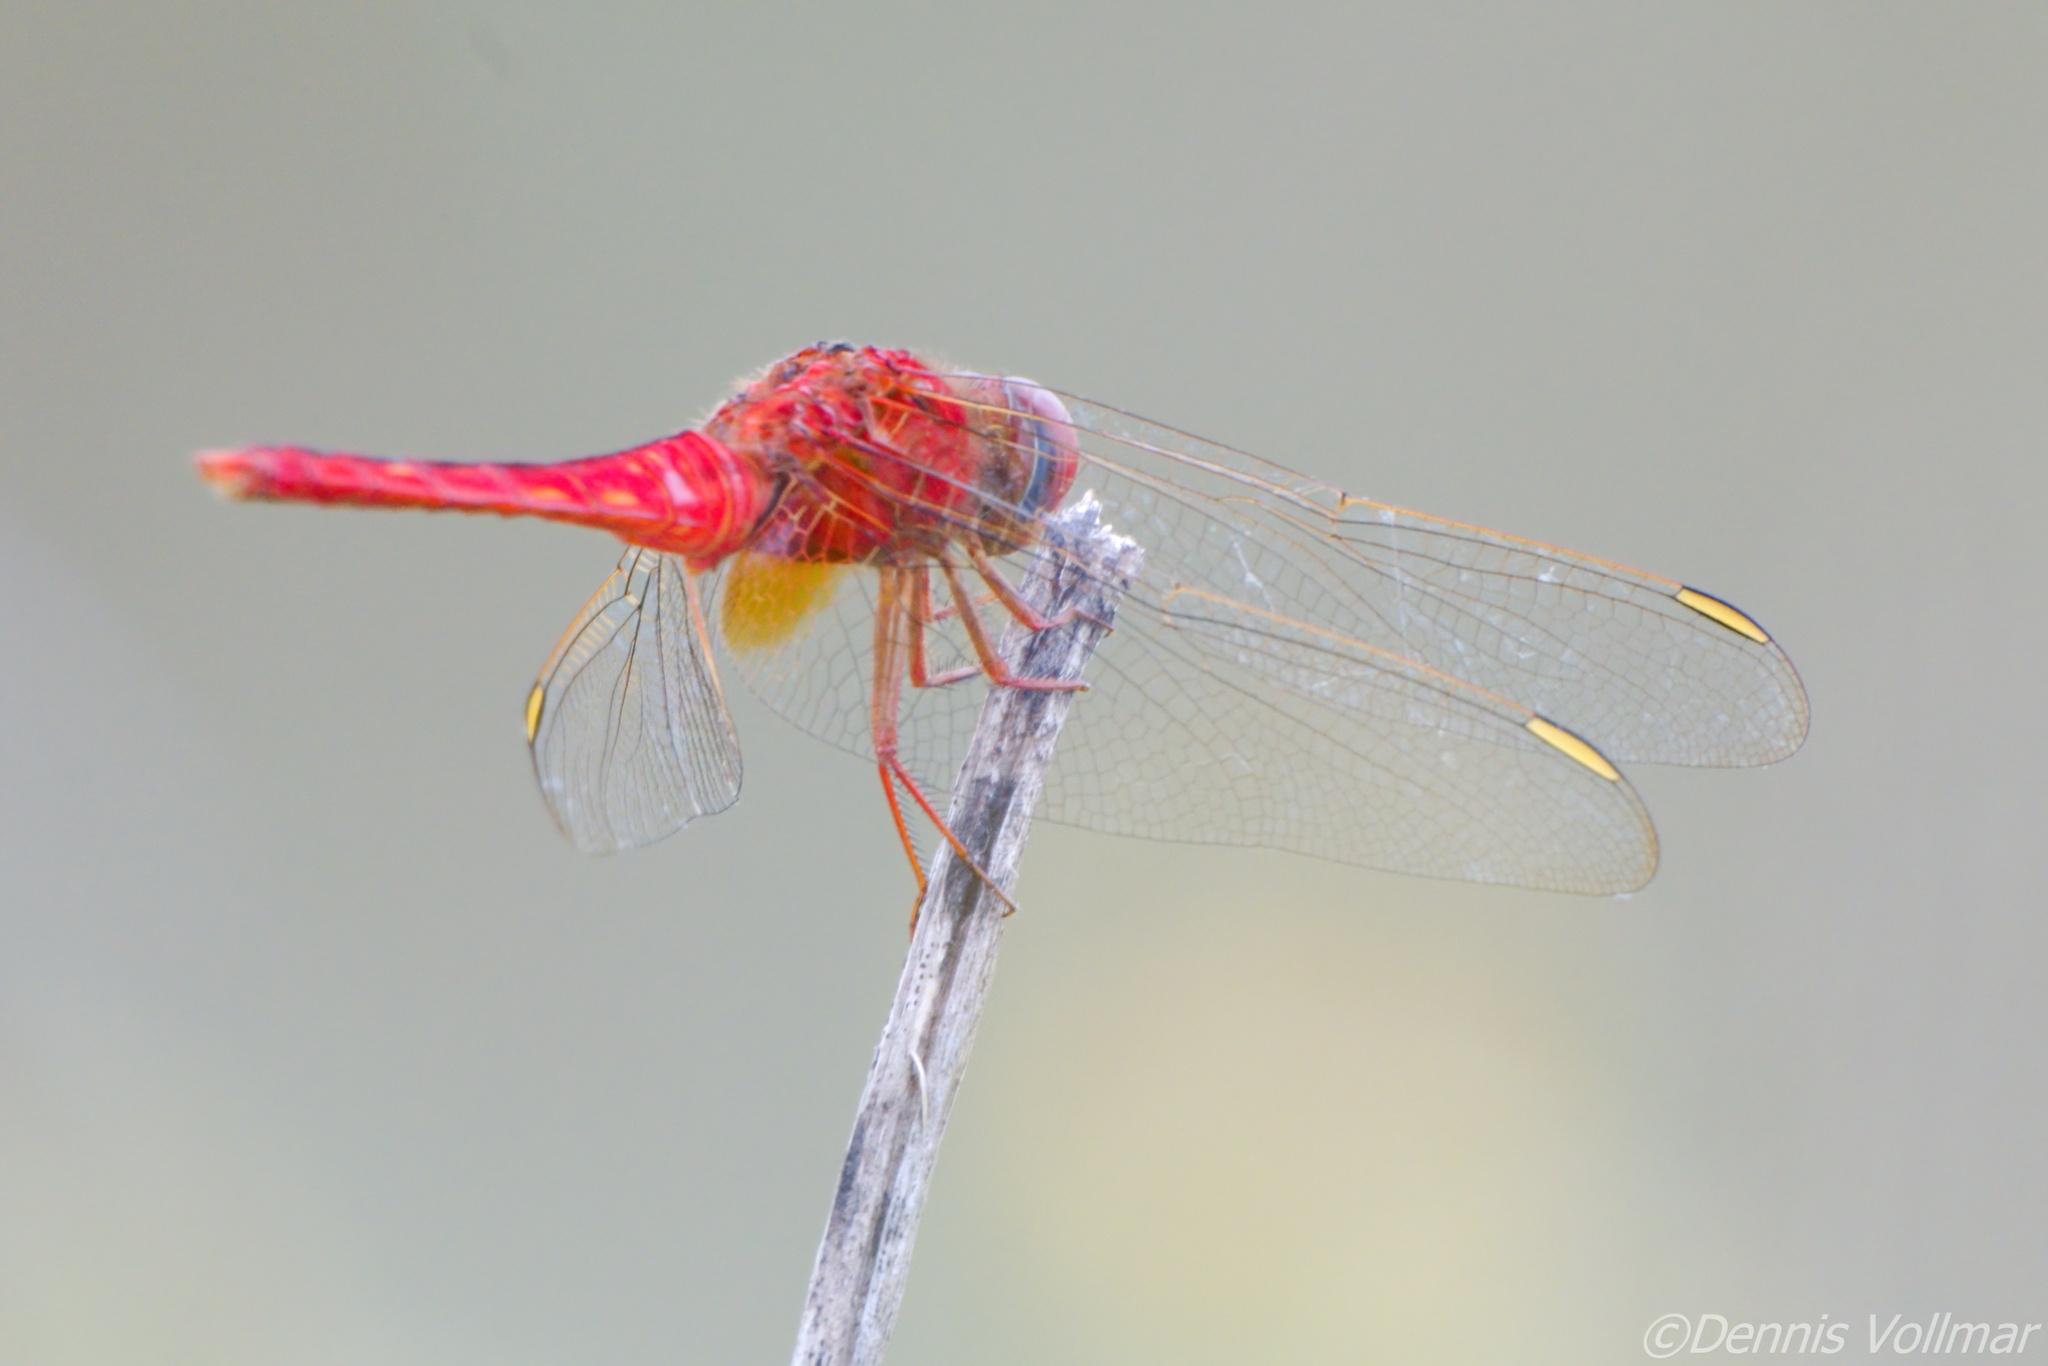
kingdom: Animalia
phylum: Arthropoda
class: Insecta
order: Odonata
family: Libellulidae
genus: Crocothemis
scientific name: Crocothemis servilia
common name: Scarlet skimmer
